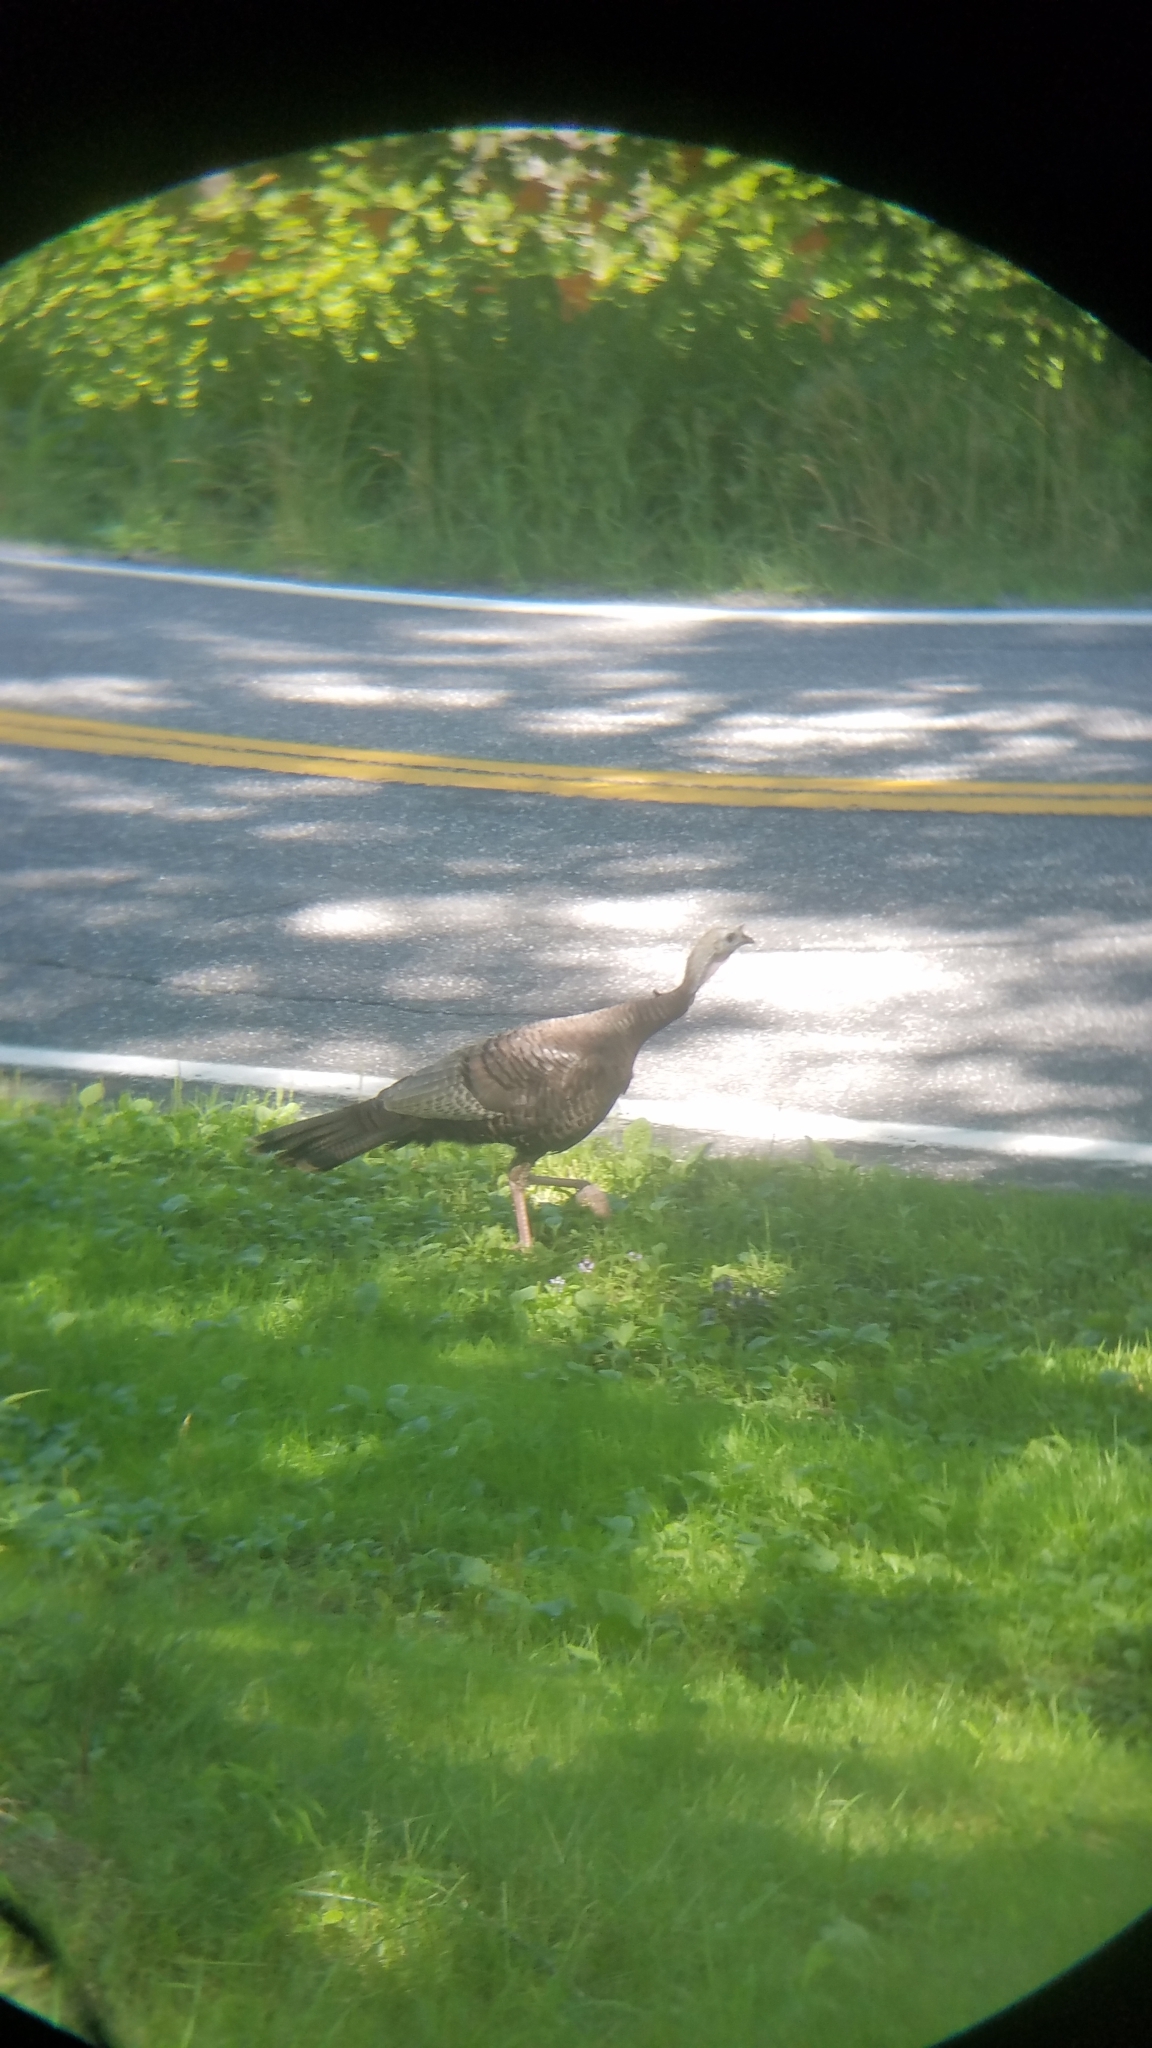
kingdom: Animalia
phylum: Chordata
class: Aves
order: Galliformes
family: Phasianidae
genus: Meleagris
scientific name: Meleagris gallopavo
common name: Wild turkey
